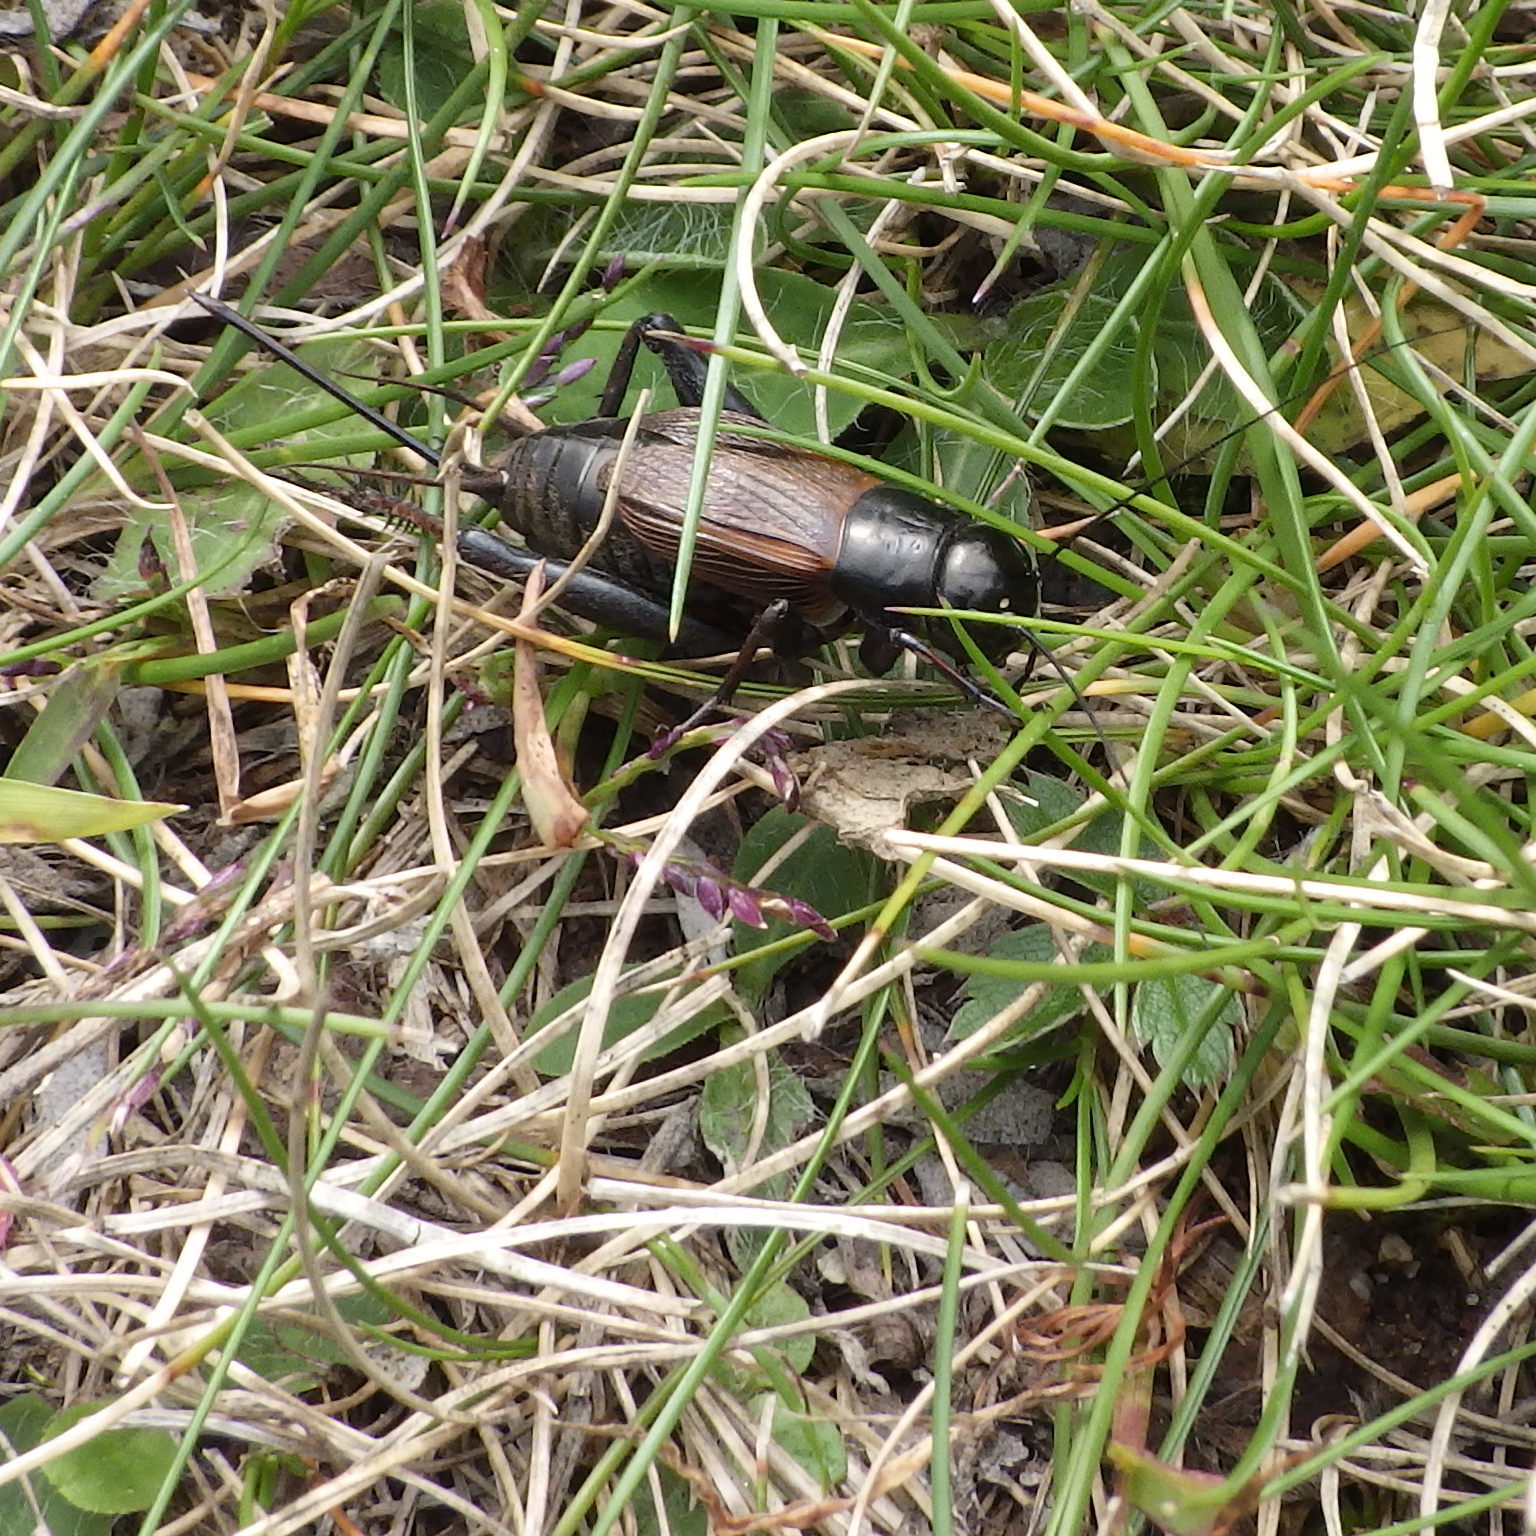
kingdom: Animalia
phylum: Arthropoda
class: Insecta
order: Orthoptera
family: Gryllidae
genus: Gryllus
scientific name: Gryllus pennsylvanicus
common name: Fall field cricket
